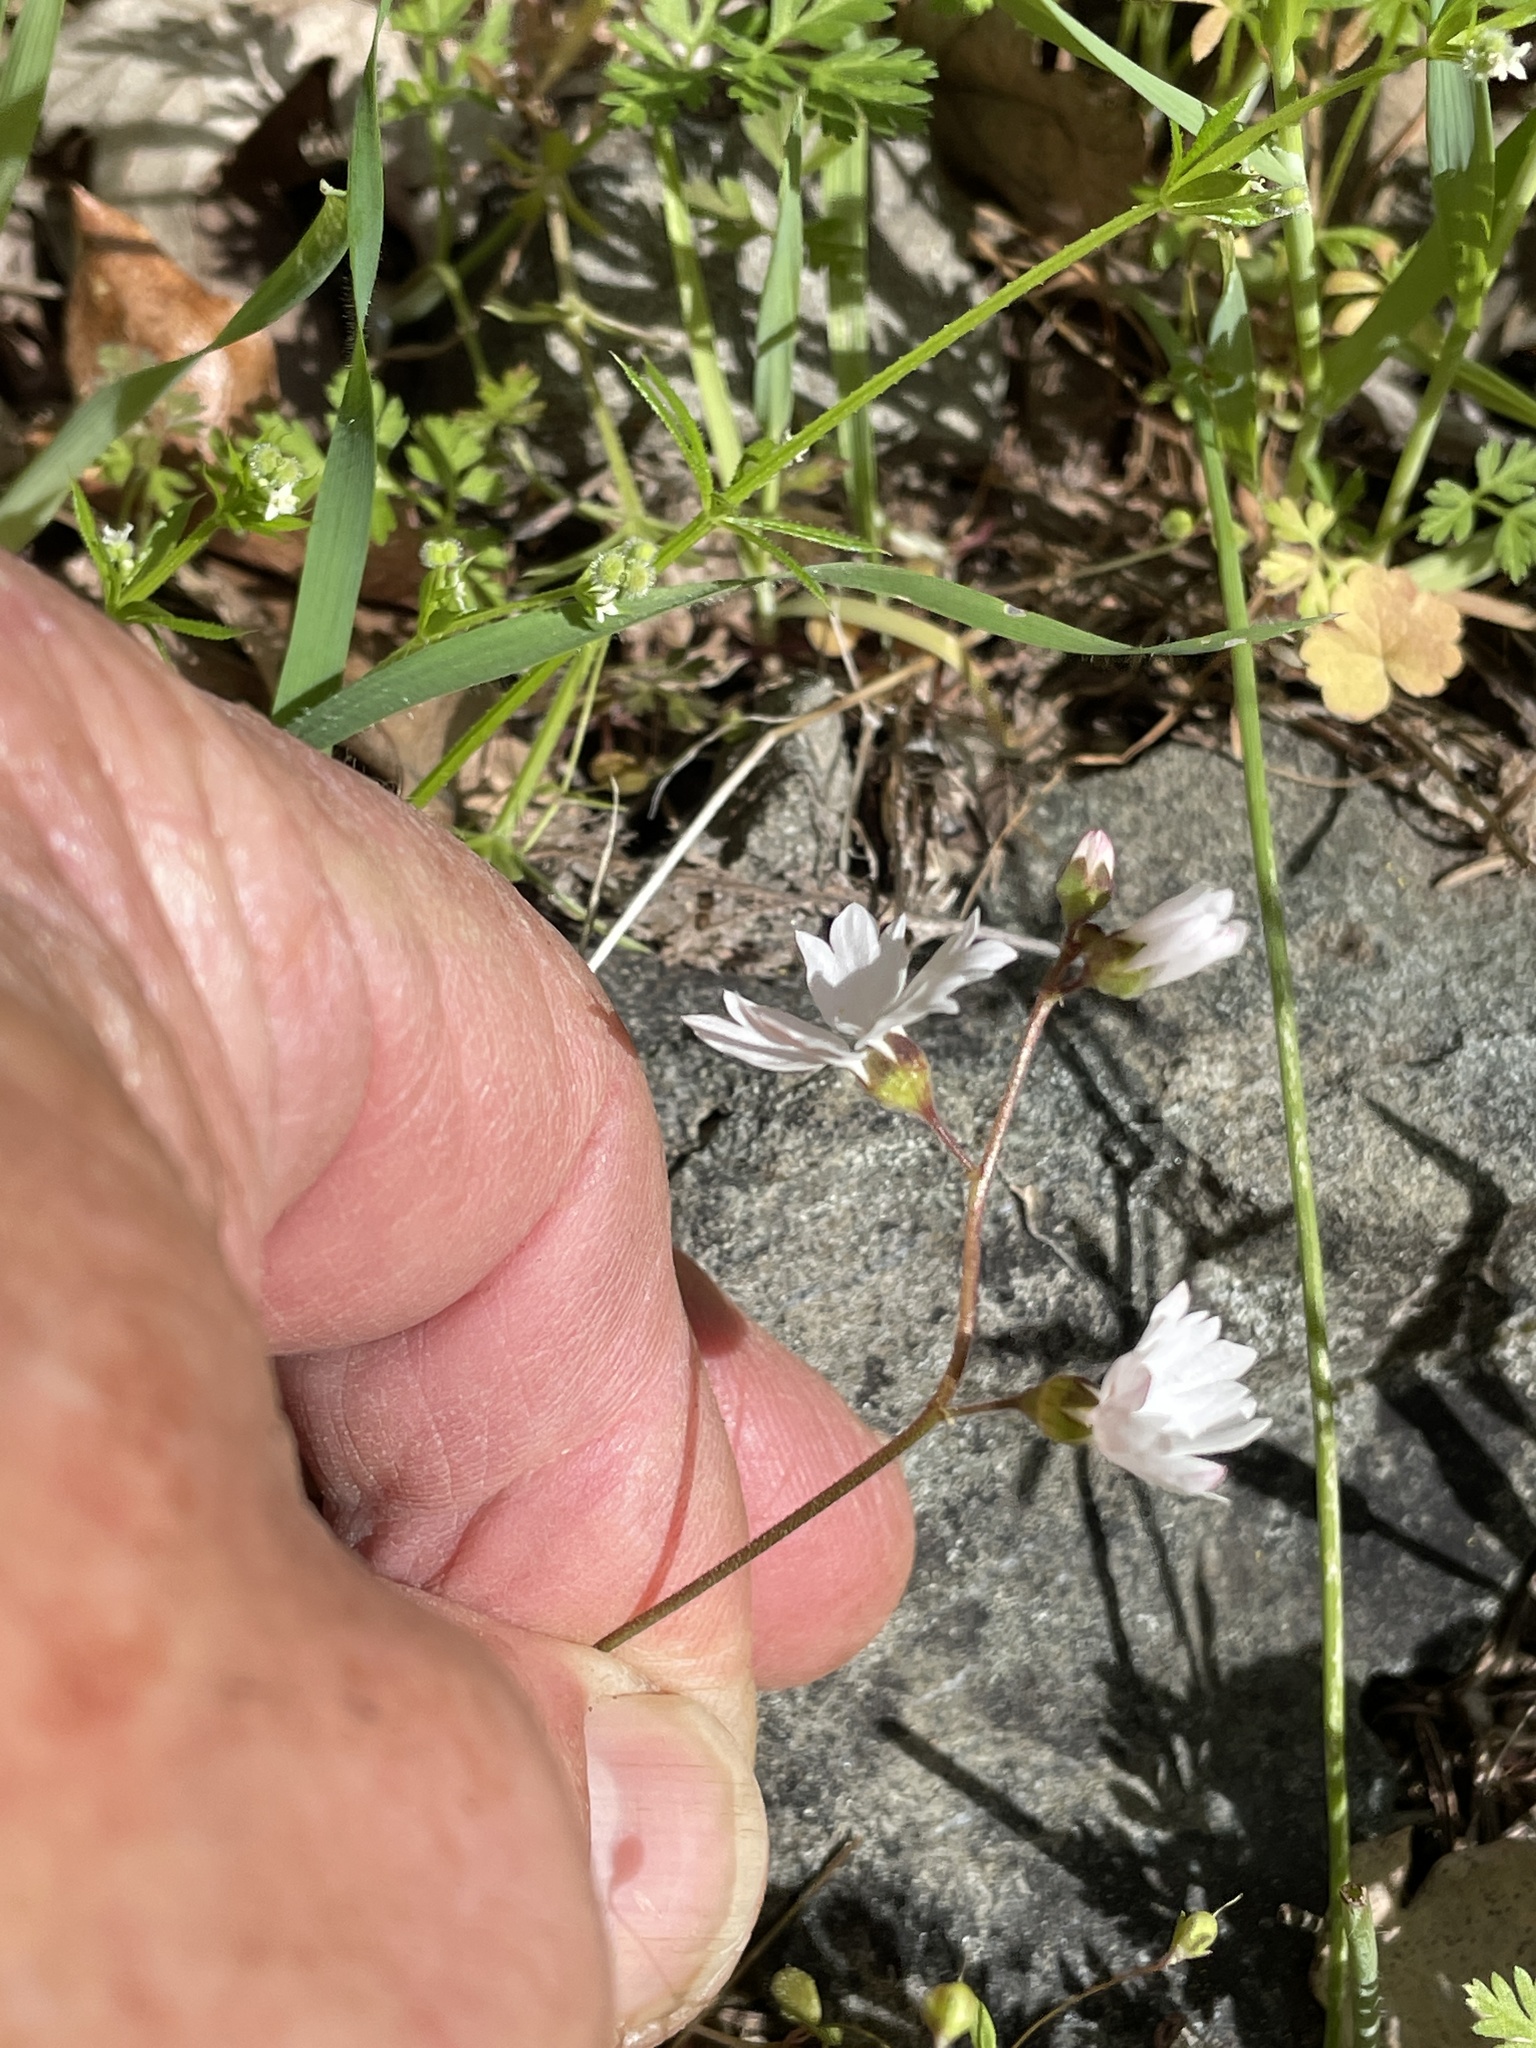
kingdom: Plantae
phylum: Tracheophyta
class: Magnoliopsida
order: Saxifragales
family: Saxifragaceae
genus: Lithophragma
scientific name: Lithophragma affine
